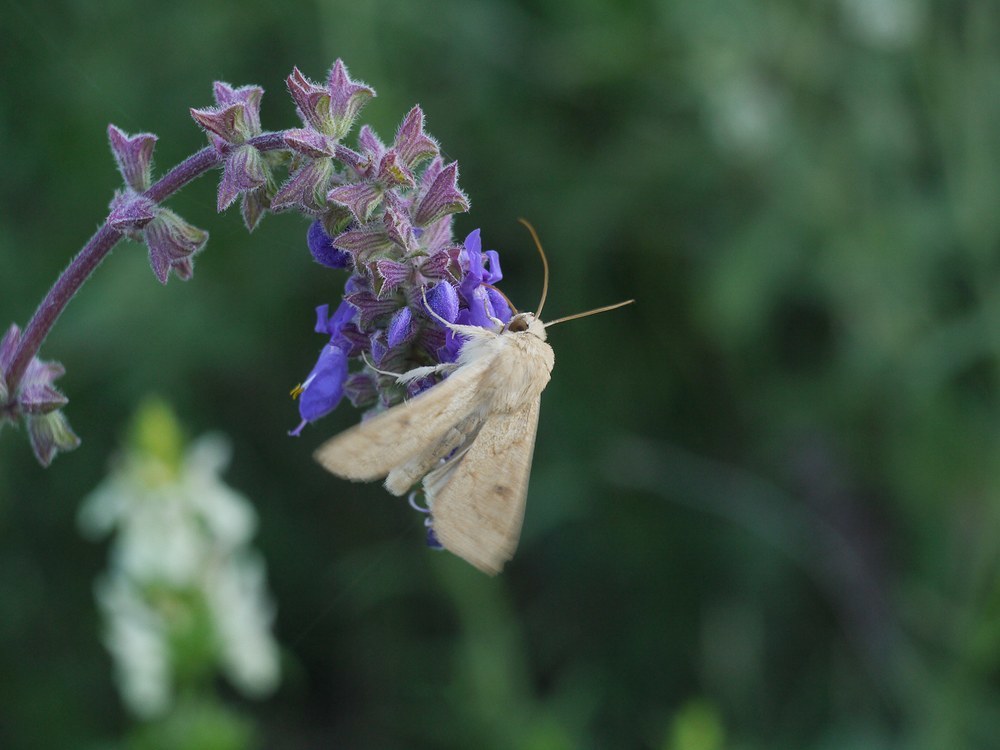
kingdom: Animalia
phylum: Arthropoda
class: Insecta
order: Lepidoptera
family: Noctuidae
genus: Mythimna
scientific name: Mythimna vitellina
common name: Delicate
